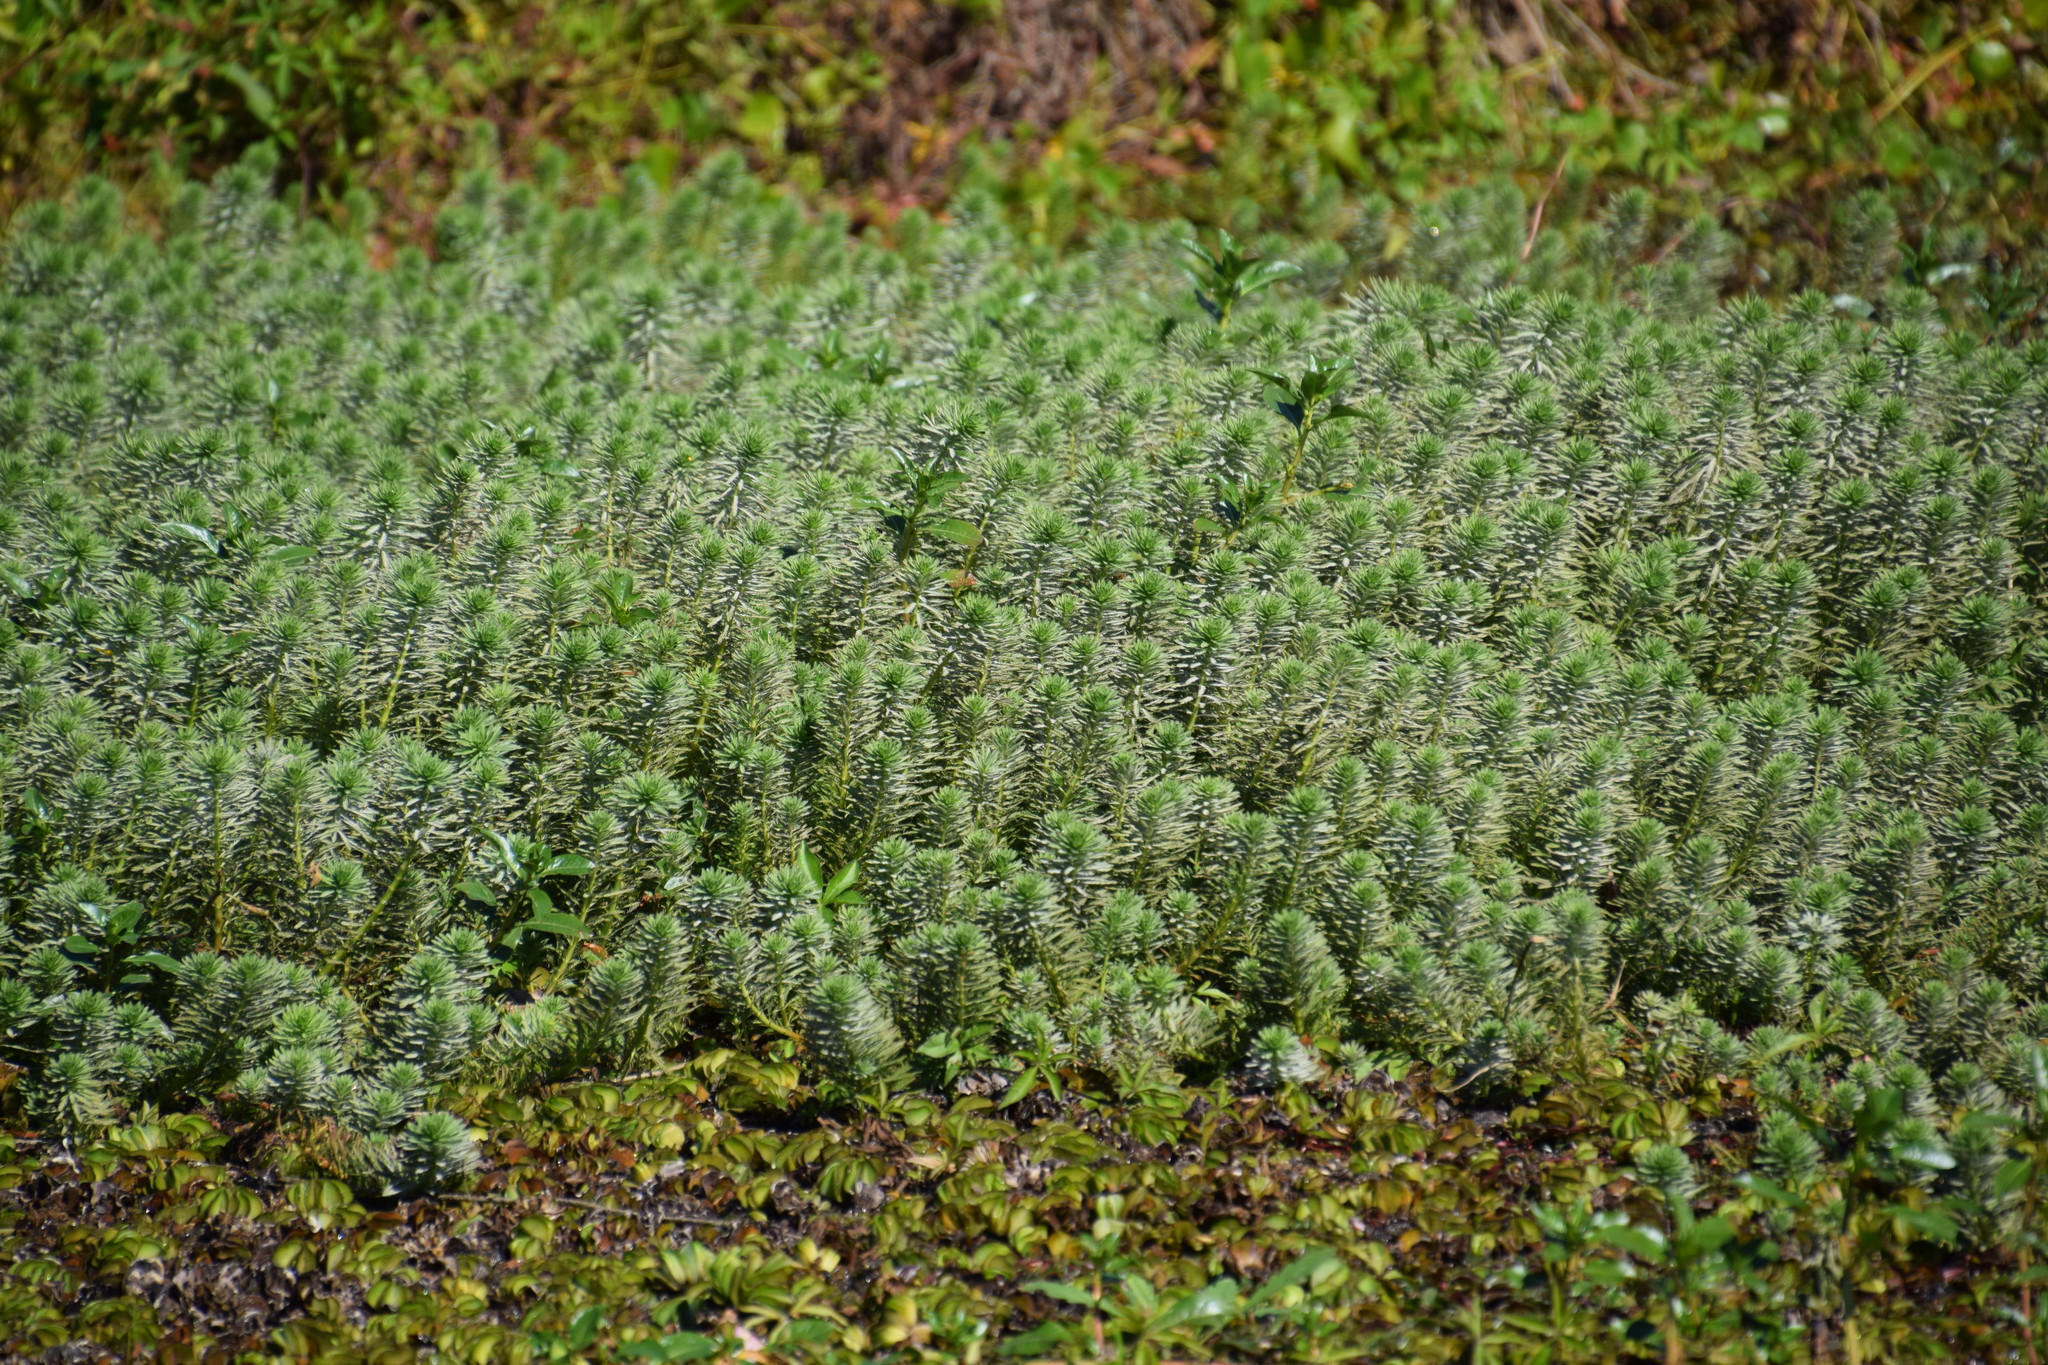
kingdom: Plantae
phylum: Tracheophyta
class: Magnoliopsida
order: Saxifragales
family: Haloragaceae
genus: Myriophyllum
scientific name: Myriophyllum aquaticum
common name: Parrot's feather
